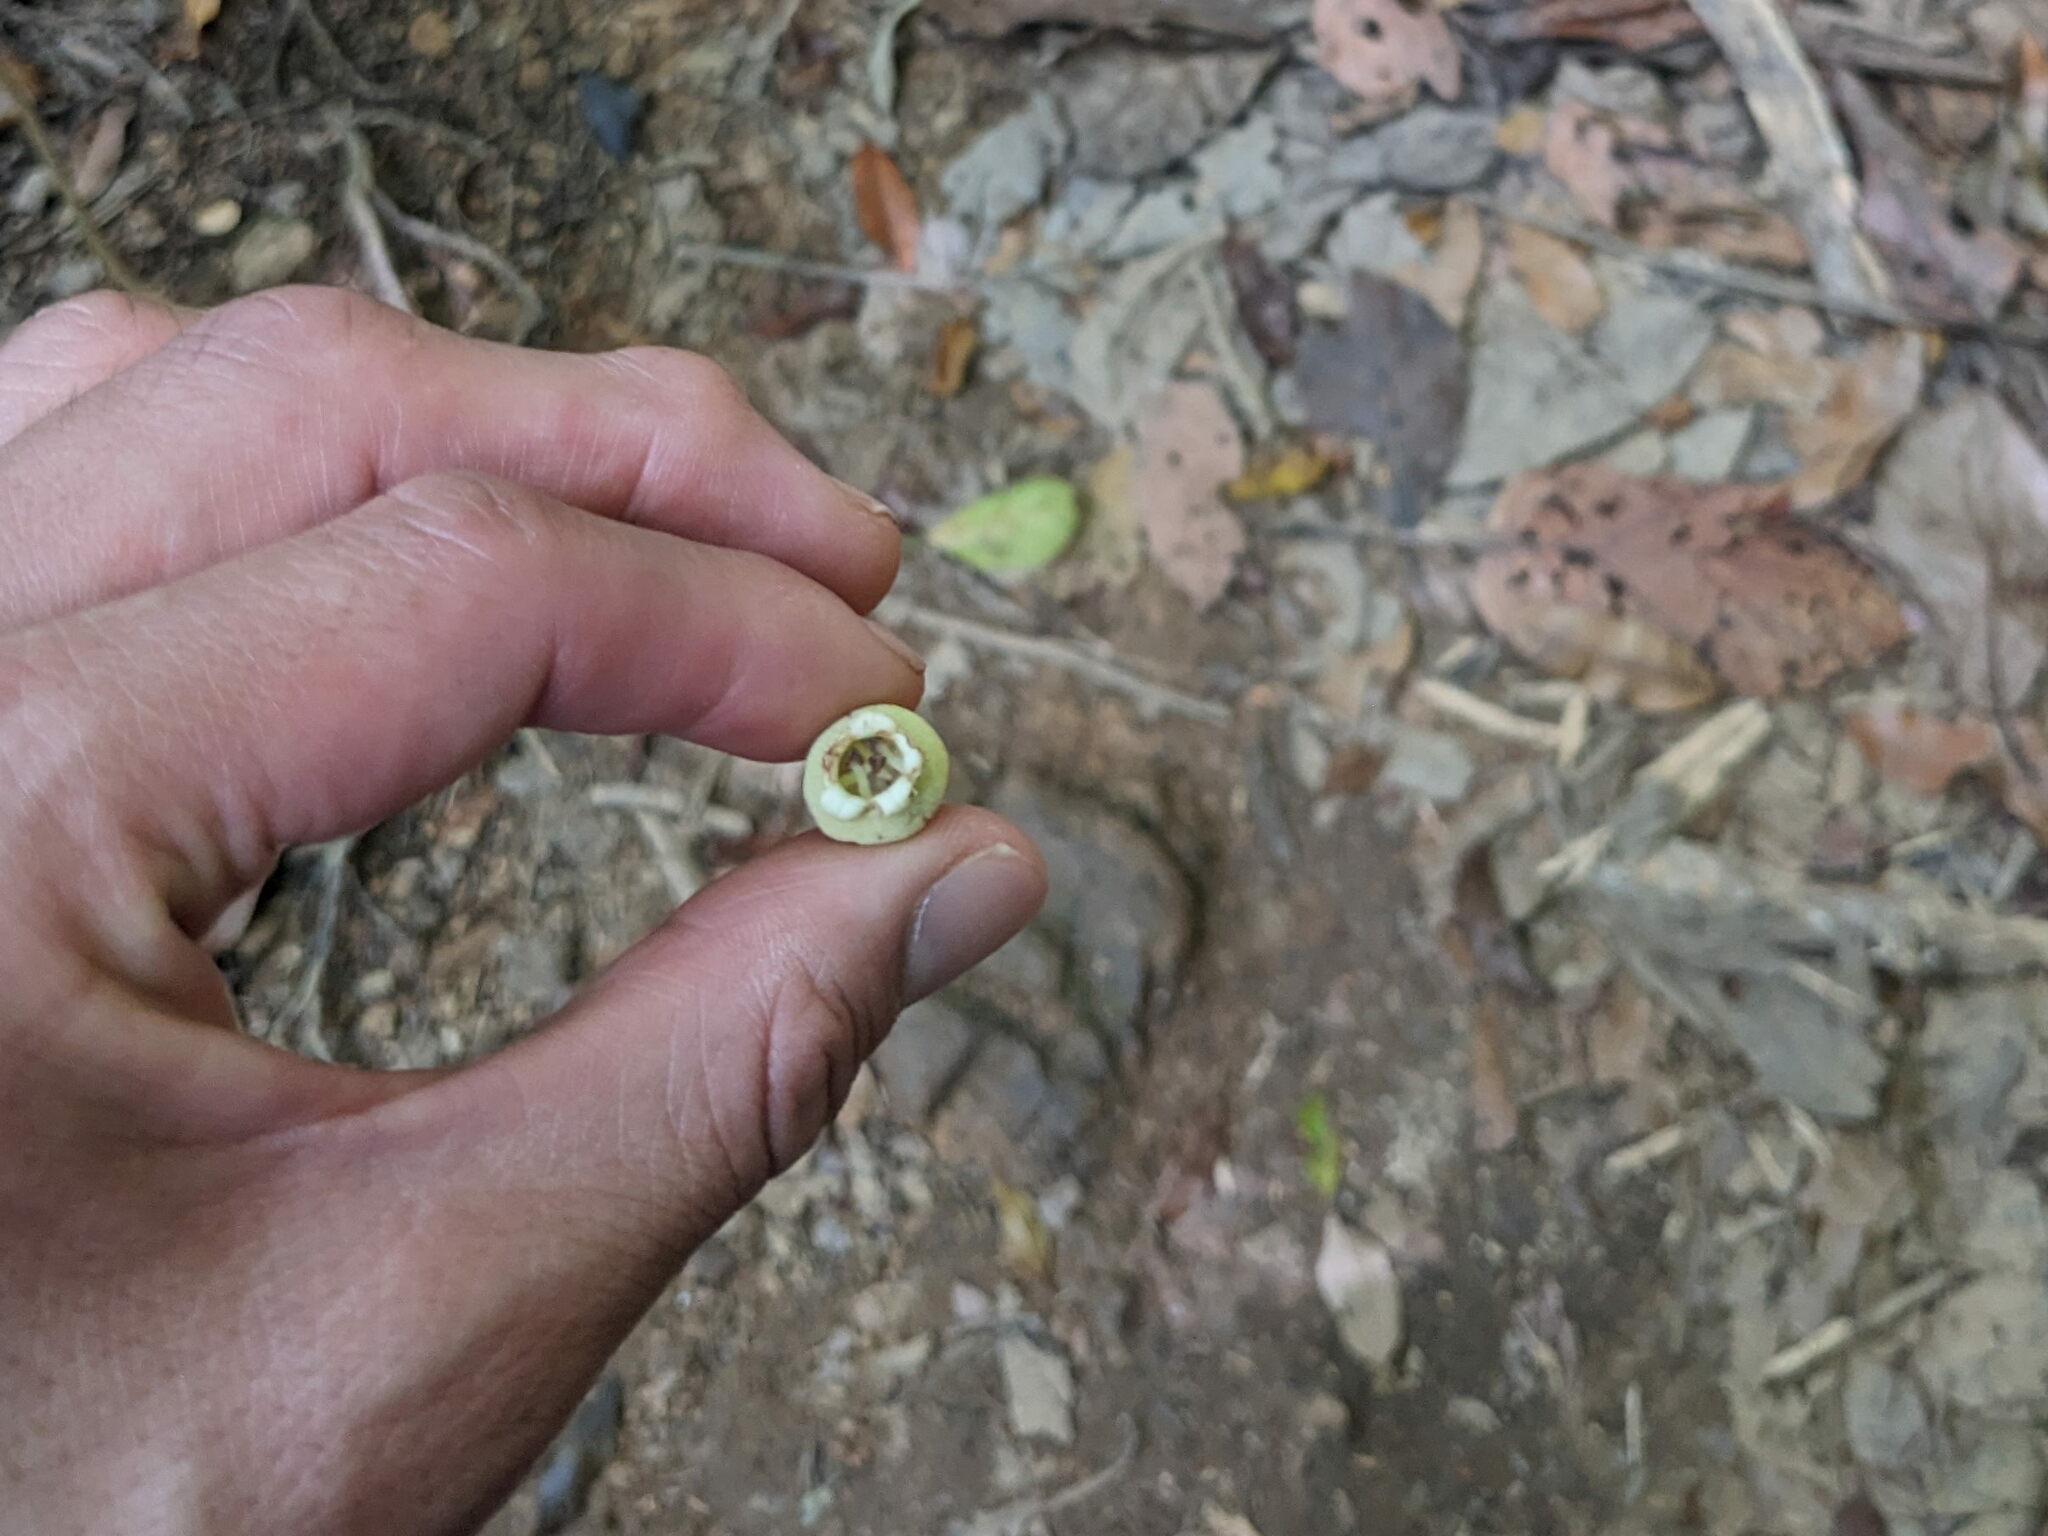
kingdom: Plantae
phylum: Tracheophyta
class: Magnoliopsida
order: Lamiales
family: Gesneriaceae
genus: Depanthus
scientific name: Depanthus glaber
